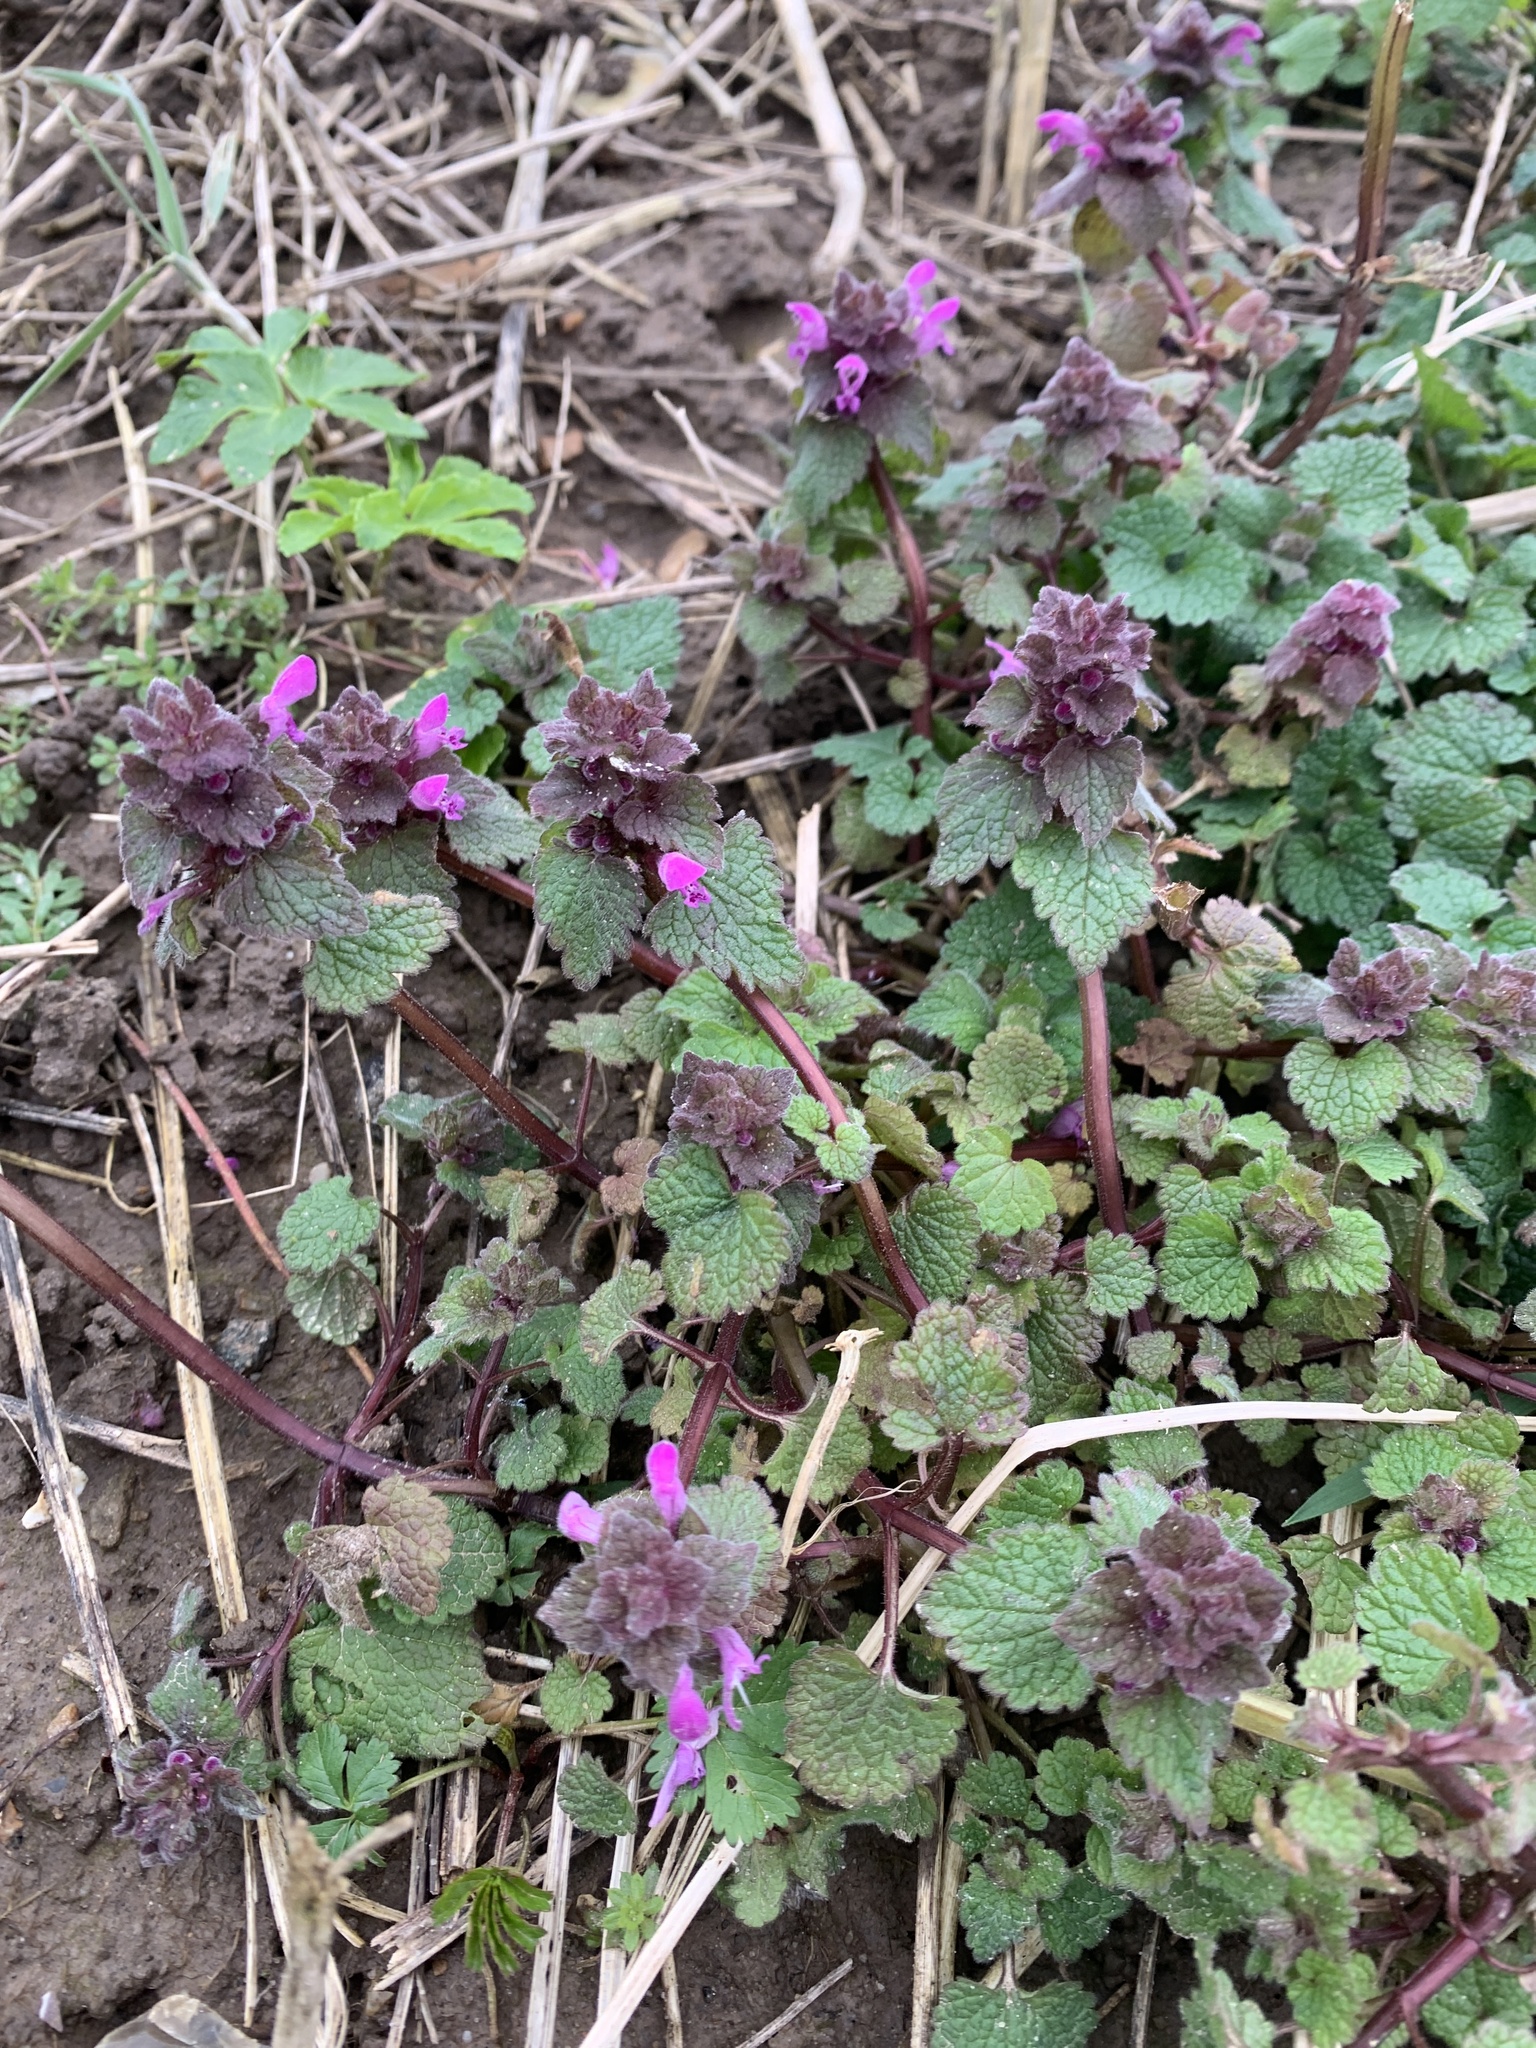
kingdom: Plantae
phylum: Tracheophyta
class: Magnoliopsida
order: Lamiales
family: Lamiaceae
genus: Lamium
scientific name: Lamium purpureum
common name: Red dead-nettle
